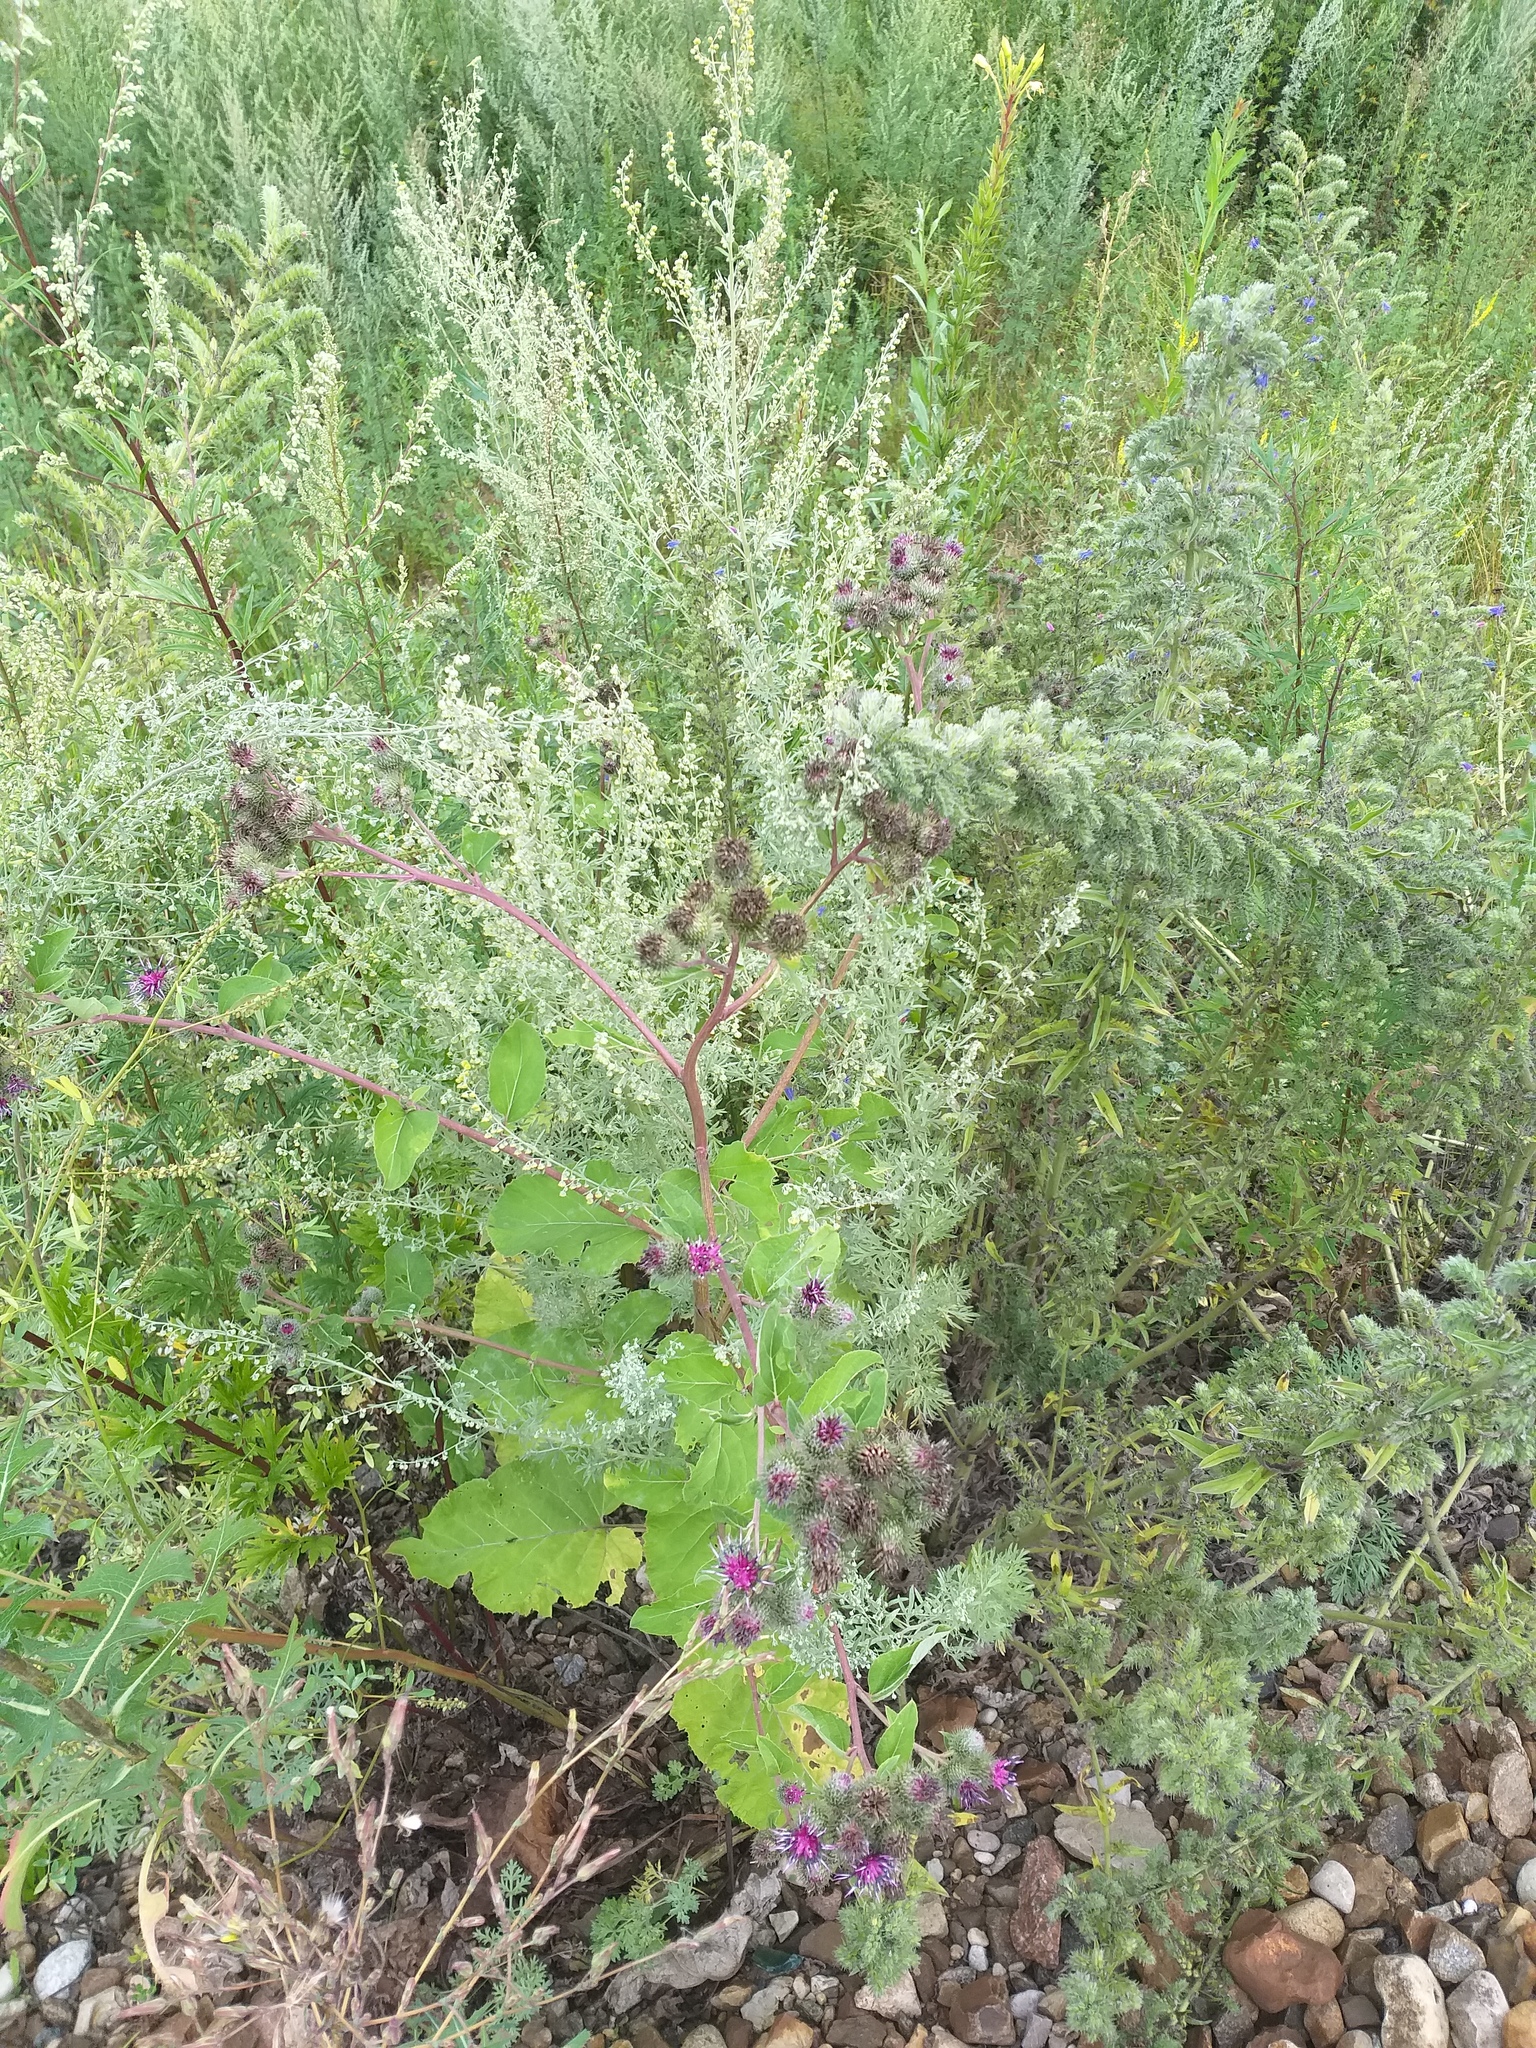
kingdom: Plantae
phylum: Tracheophyta
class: Magnoliopsida
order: Asterales
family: Asteraceae
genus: Arctium
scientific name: Arctium tomentosum
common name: Woolly burdock
